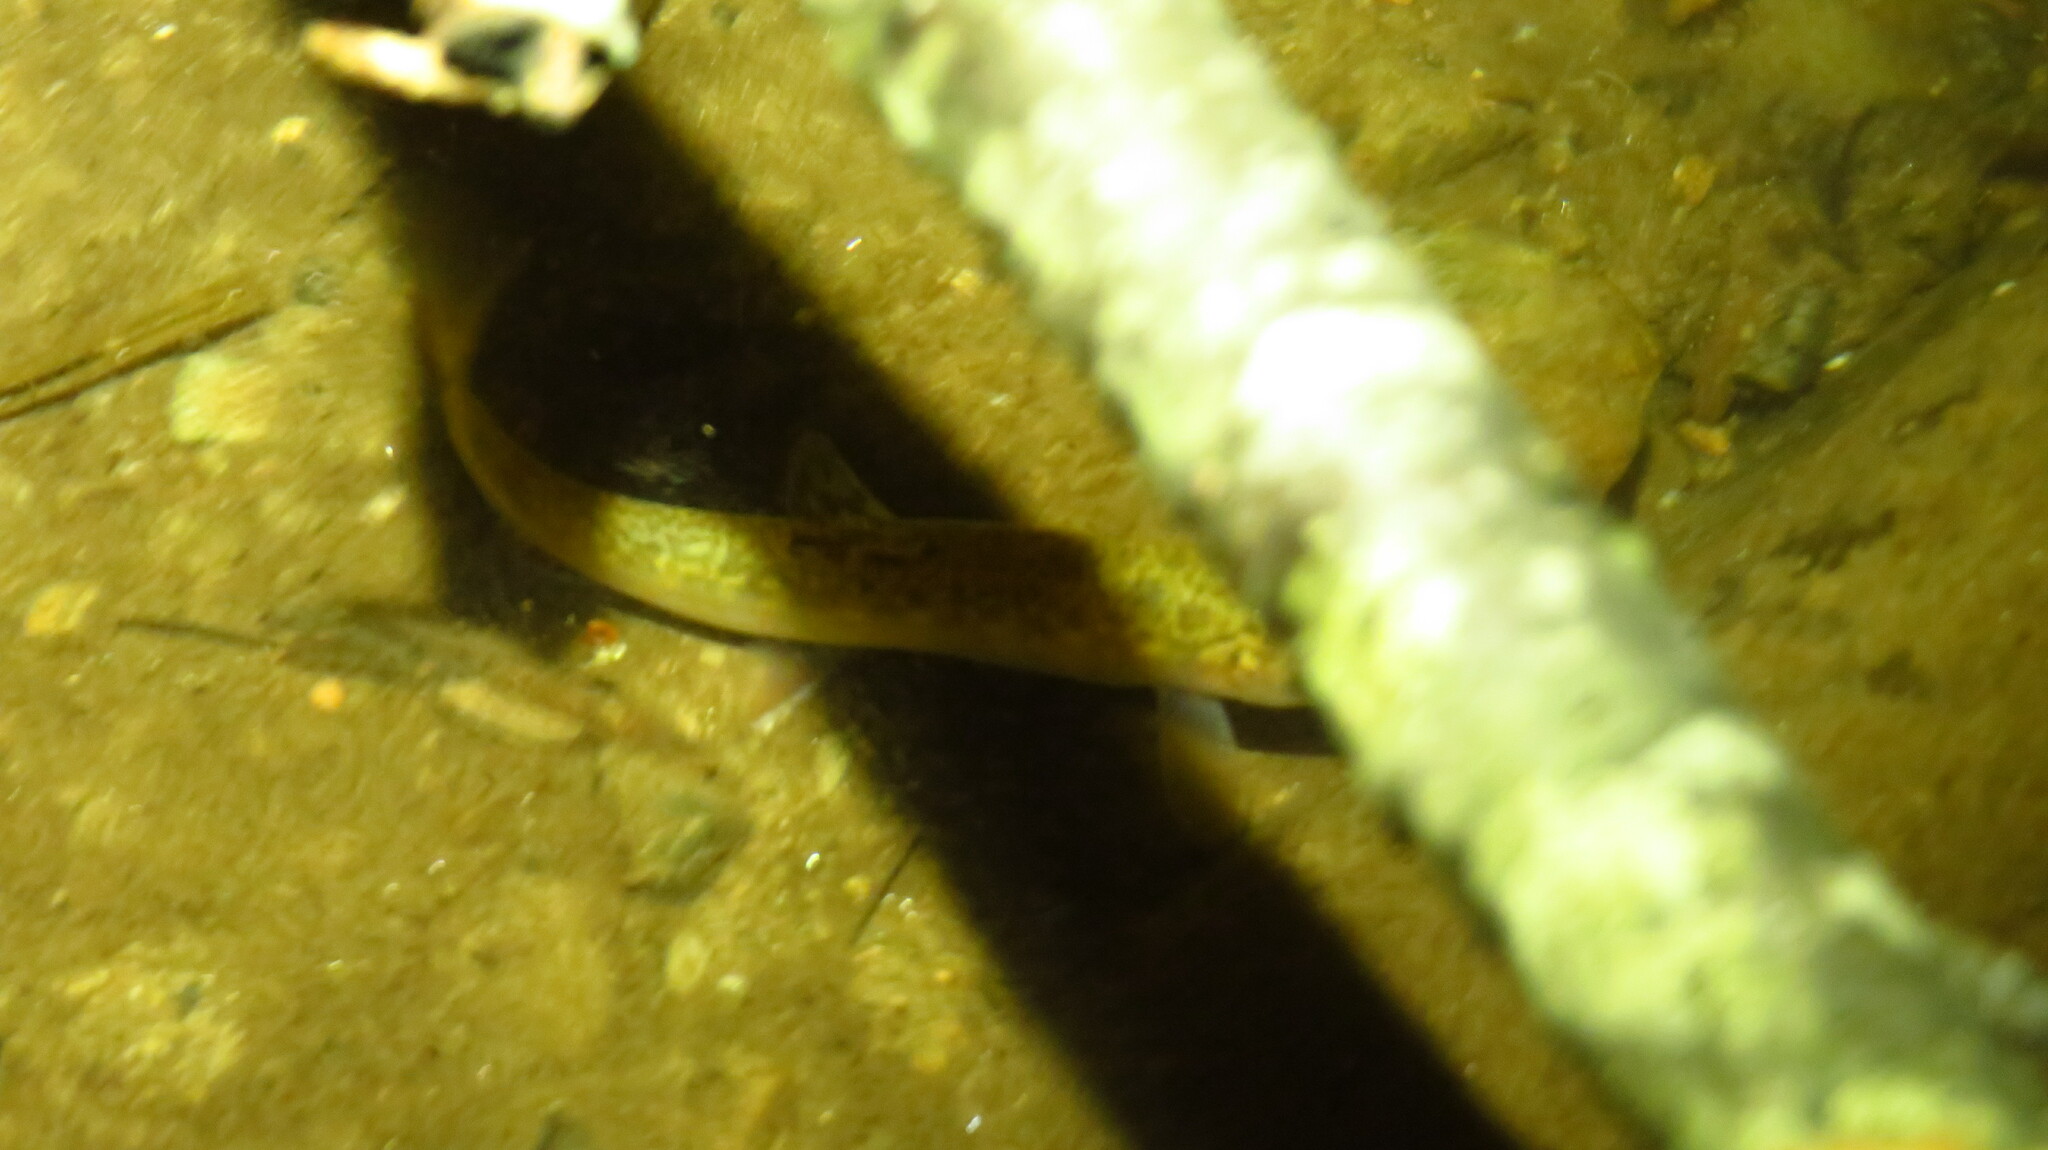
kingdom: Animalia
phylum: Chordata
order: Salmoniformes
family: Salmonidae
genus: Salvelinus
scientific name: Salvelinus fontinalis
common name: Brook trout
